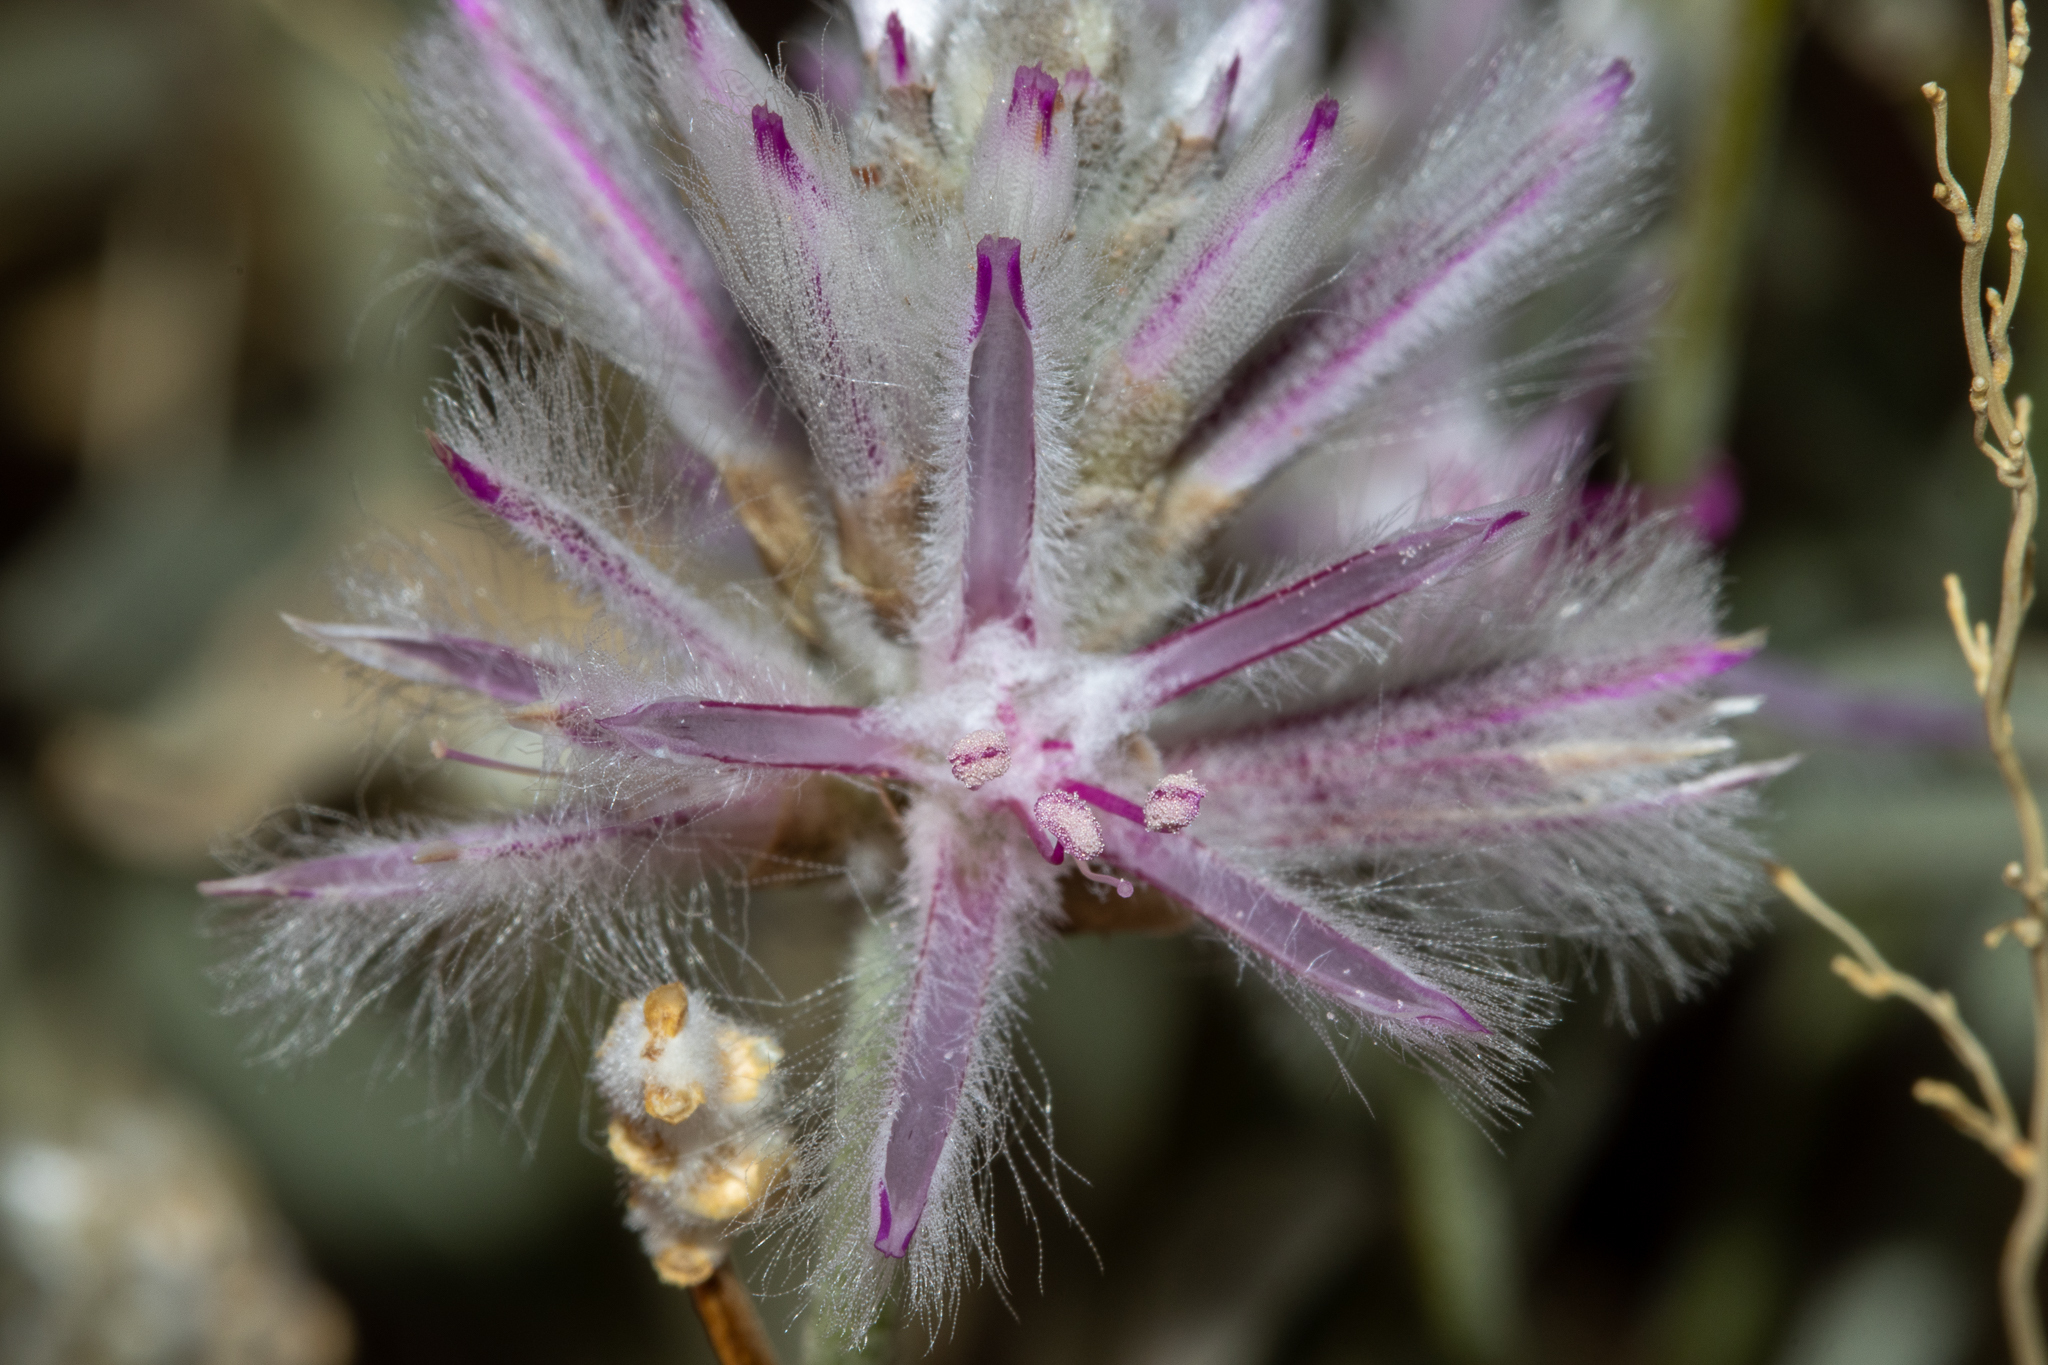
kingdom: Plantae
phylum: Tracheophyta
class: Magnoliopsida
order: Caryophyllales
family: Amaranthaceae
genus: Ptilotus
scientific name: Ptilotus sessilifolius
